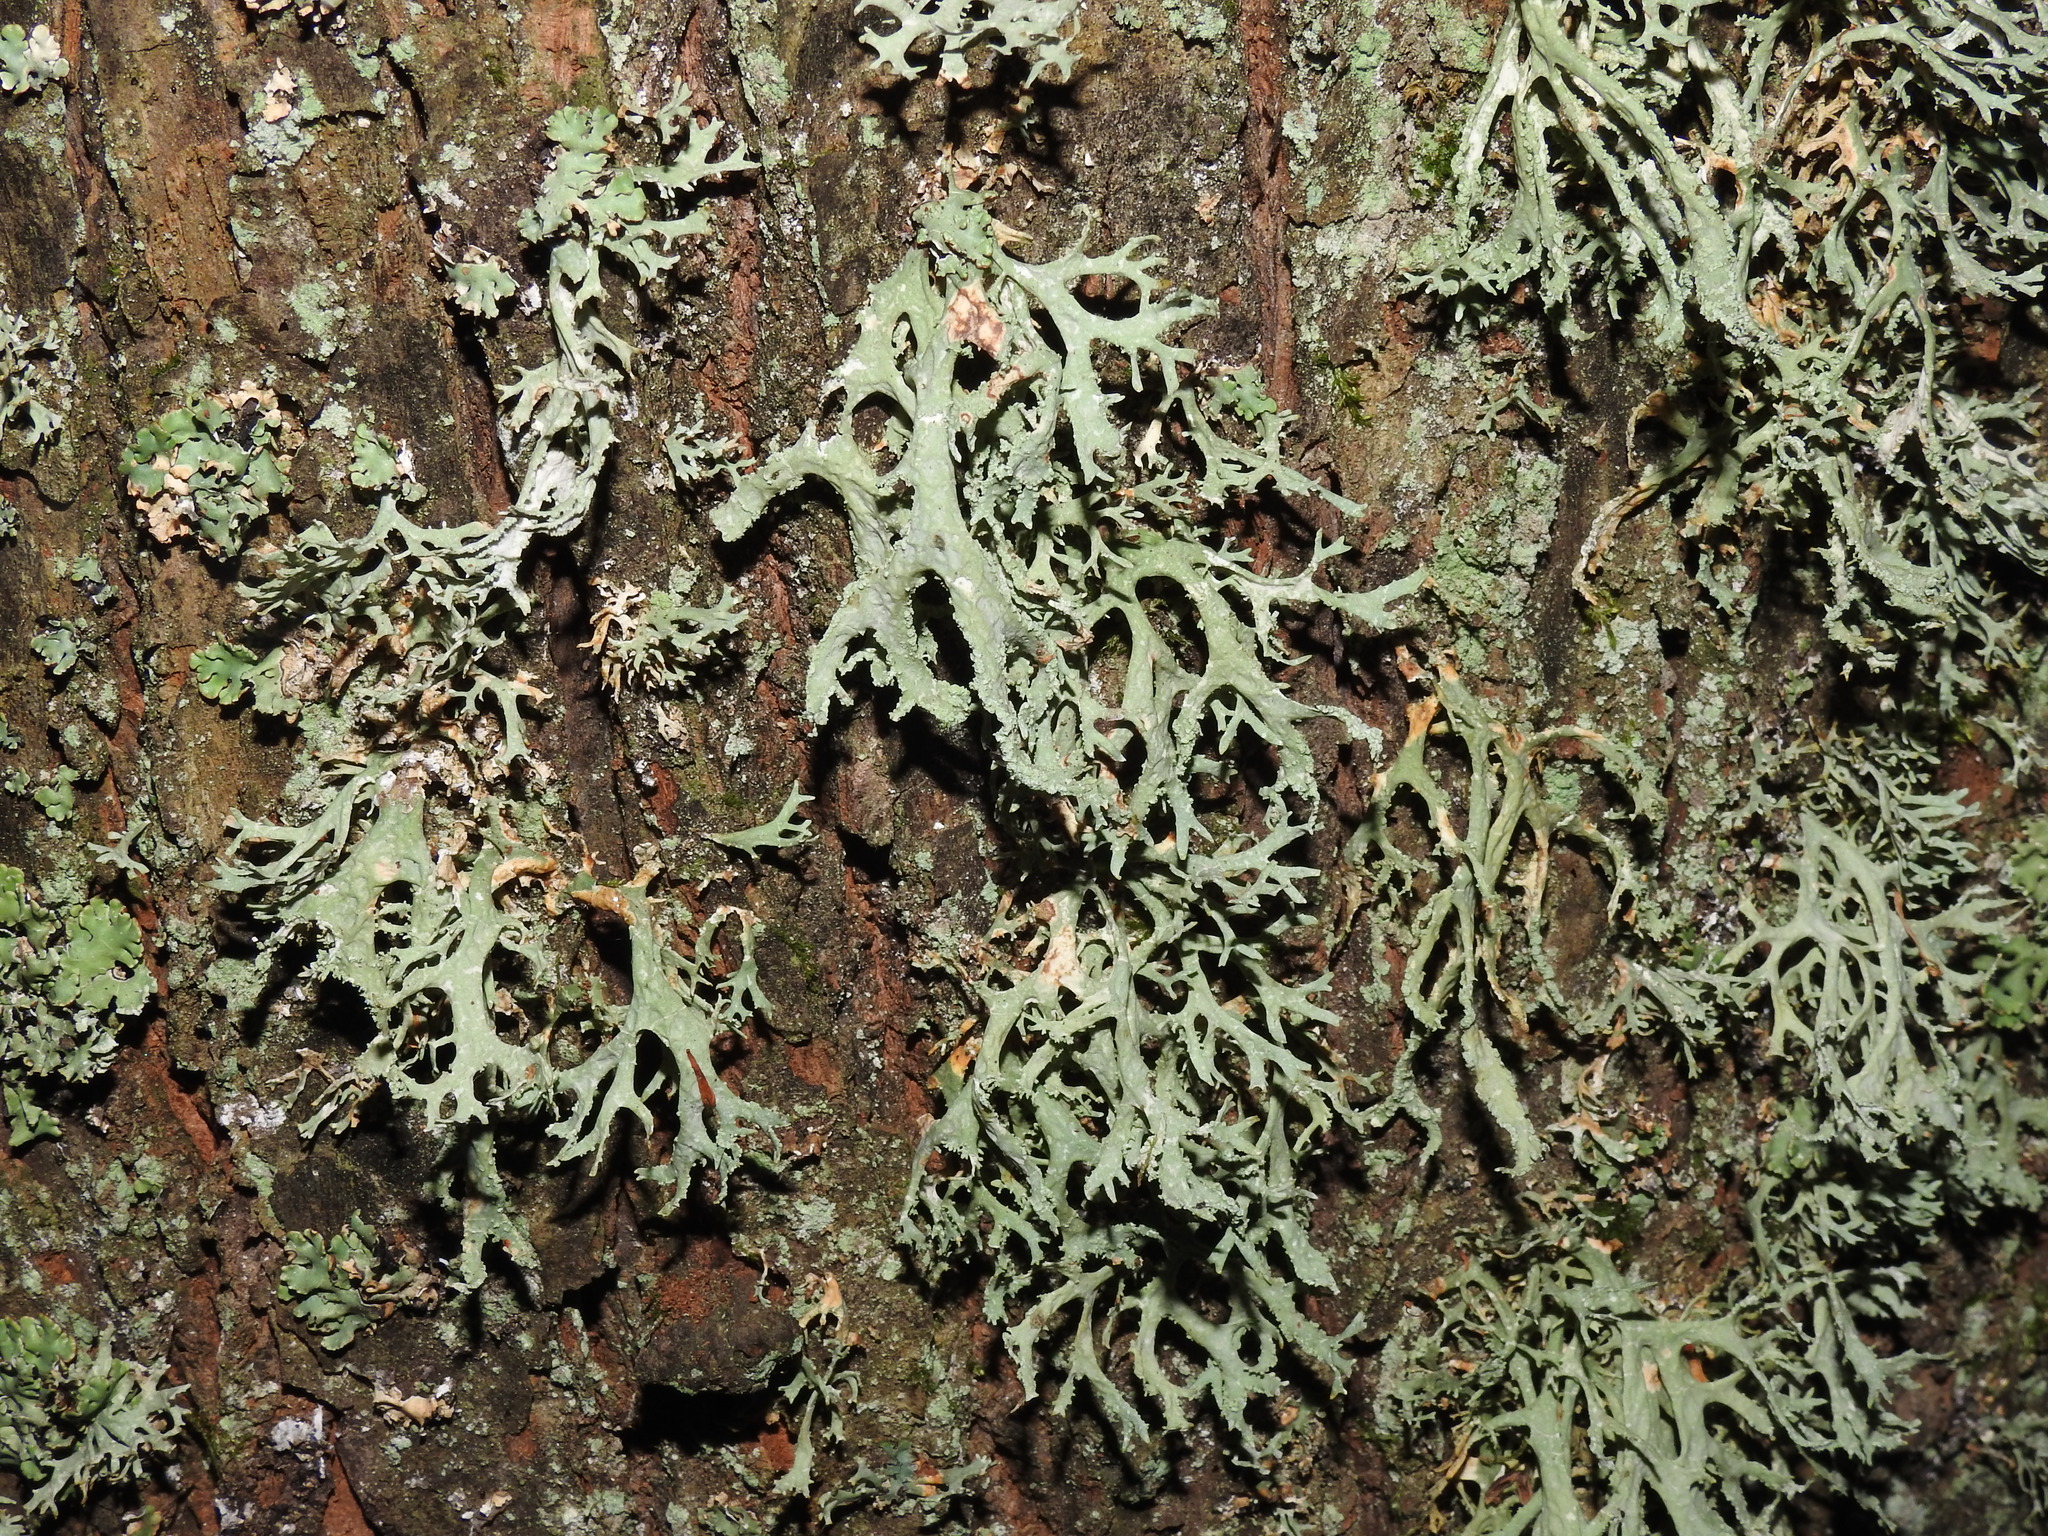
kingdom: Fungi
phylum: Ascomycota
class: Lecanoromycetes
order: Lecanorales
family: Parmeliaceae
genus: Evernia
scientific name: Evernia prunastri
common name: Oak moss
